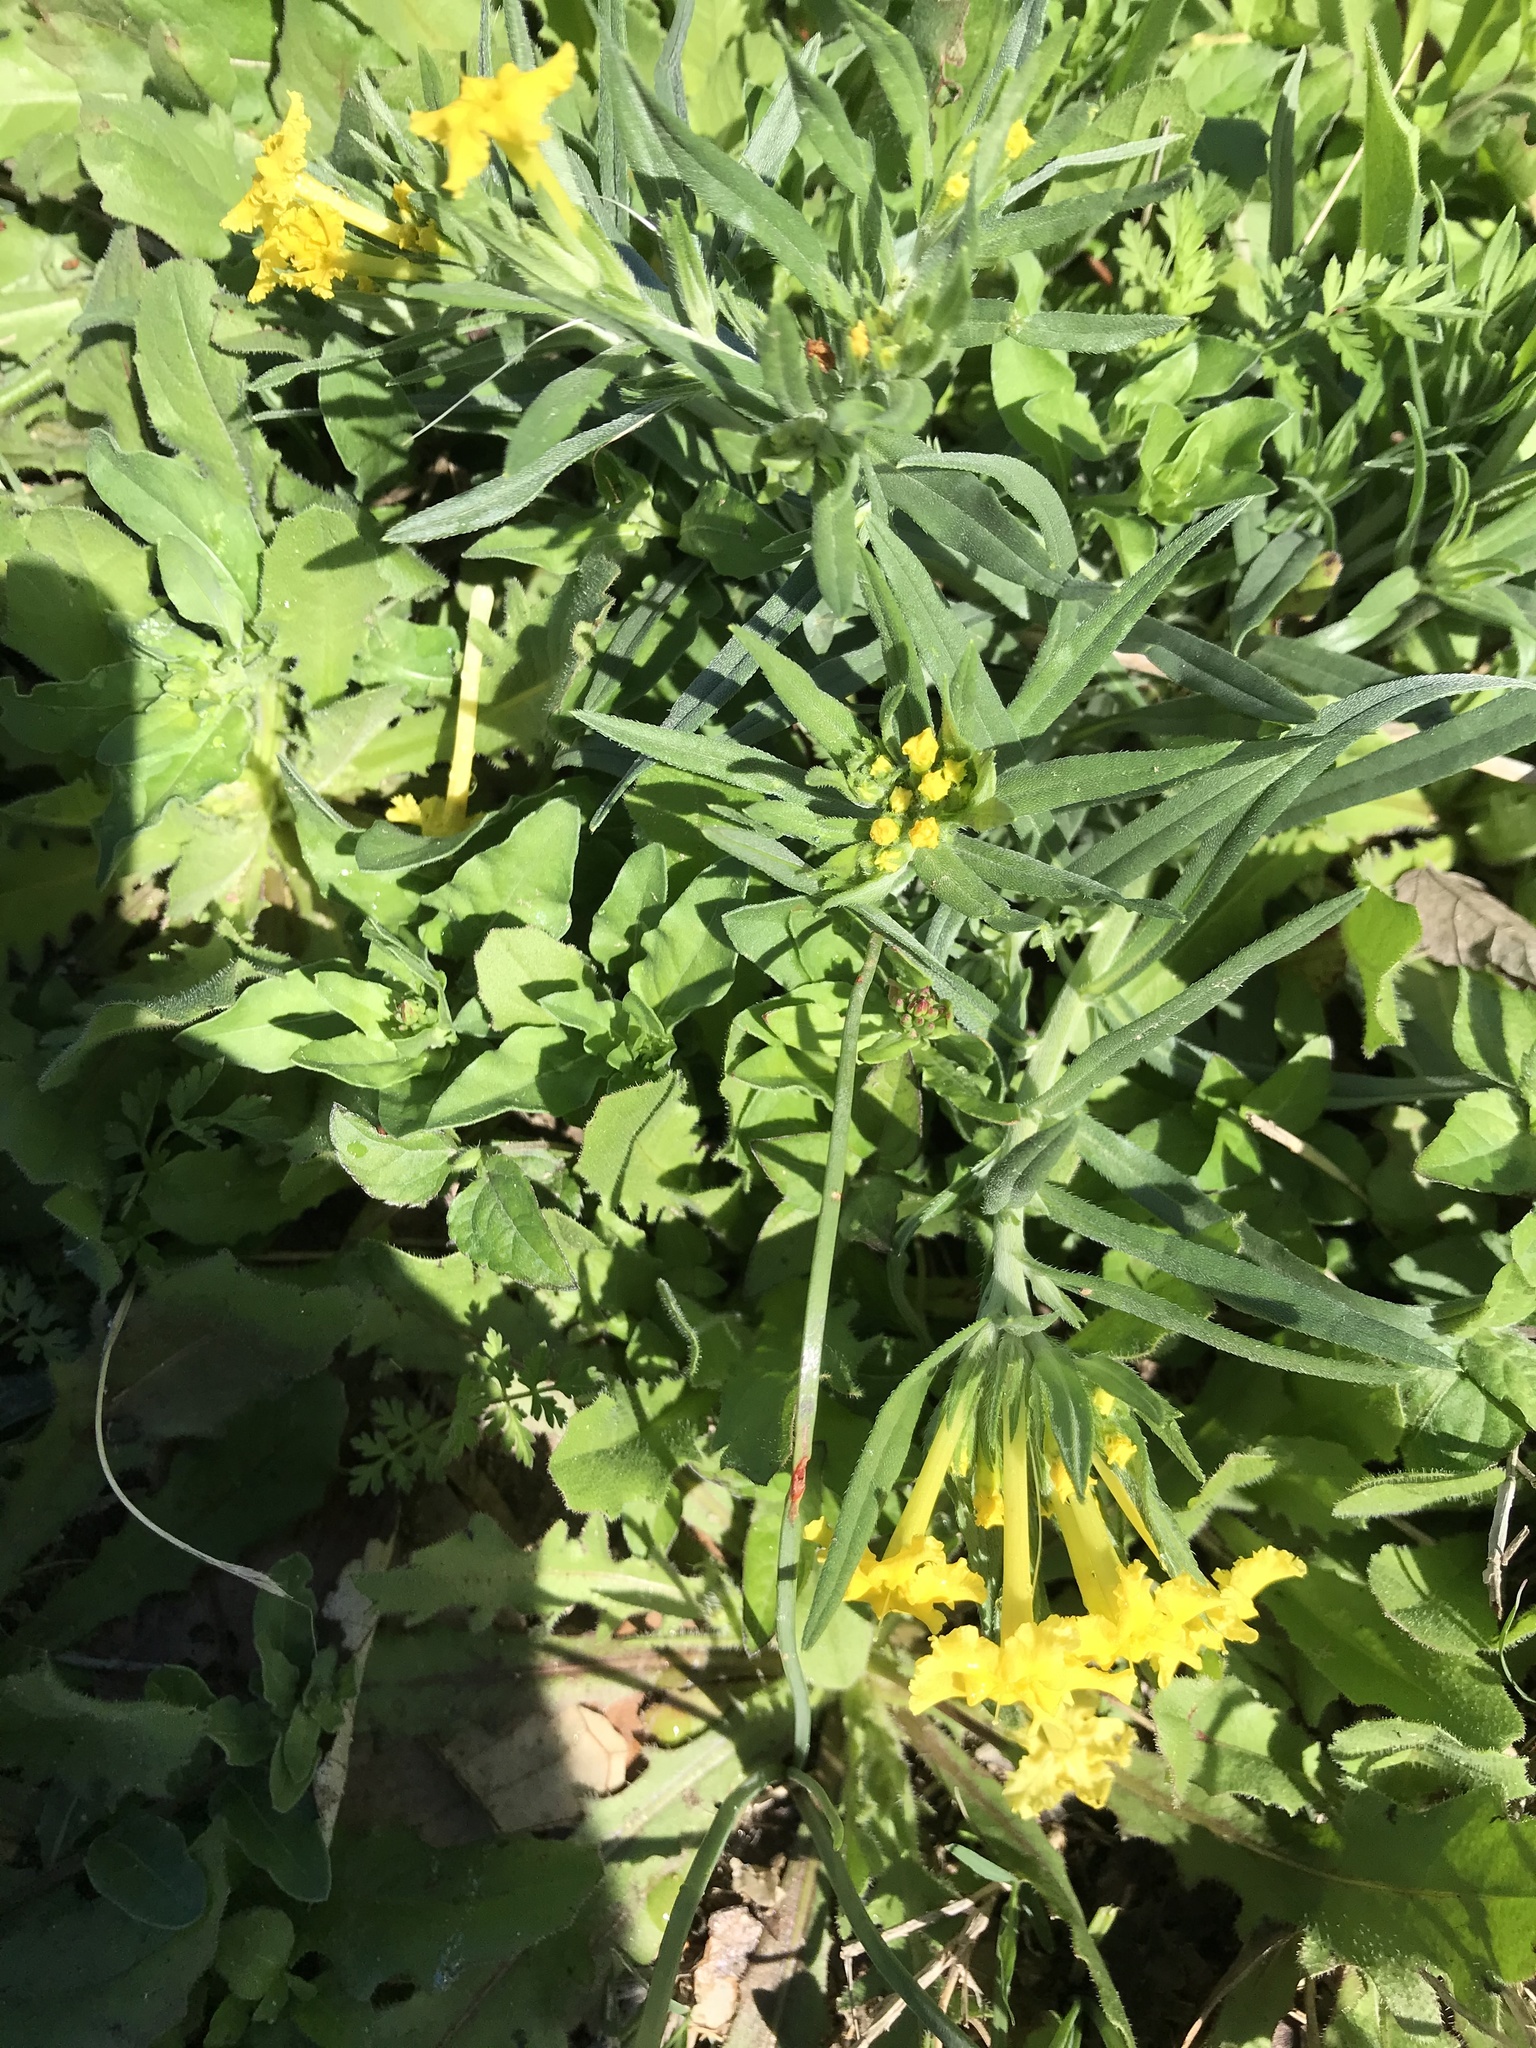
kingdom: Plantae
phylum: Tracheophyta
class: Magnoliopsida
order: Boraginales
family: Boraginaceae
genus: Lithospermum
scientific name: Lithospermum incisum
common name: Fringed gromwell
